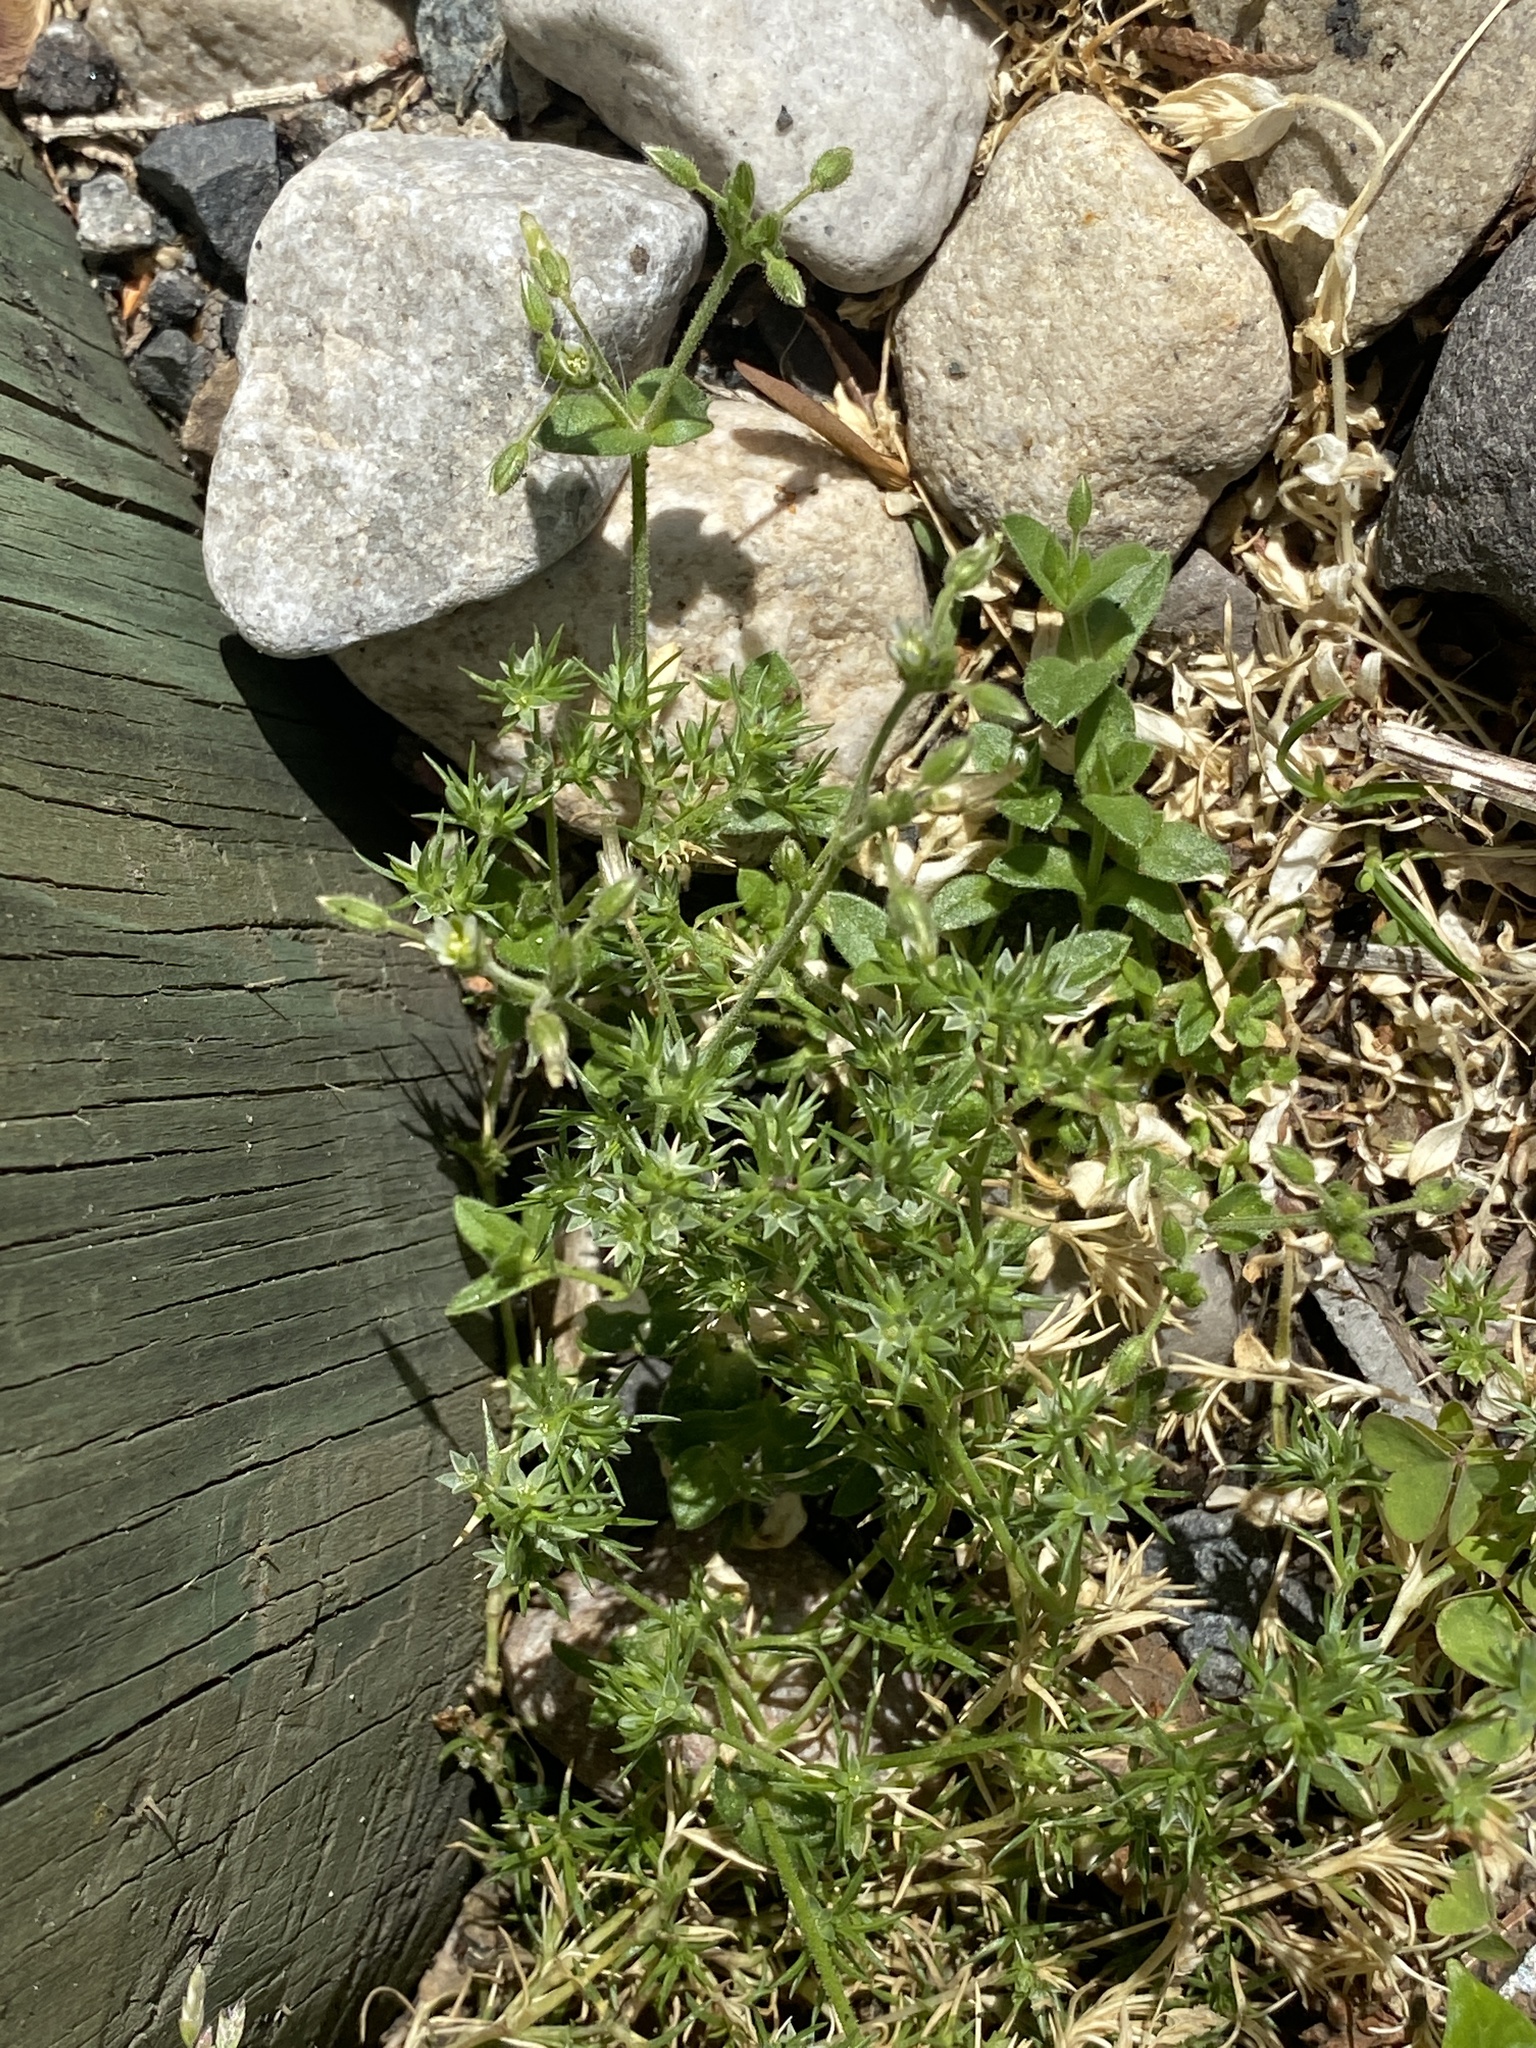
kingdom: Plantae
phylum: Tracheophyta
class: Magnoliopsida
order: Caryophyllales
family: Caryophyllaceae
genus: Scleranthus
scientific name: Scleranthus annuus
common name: Annual knawel
